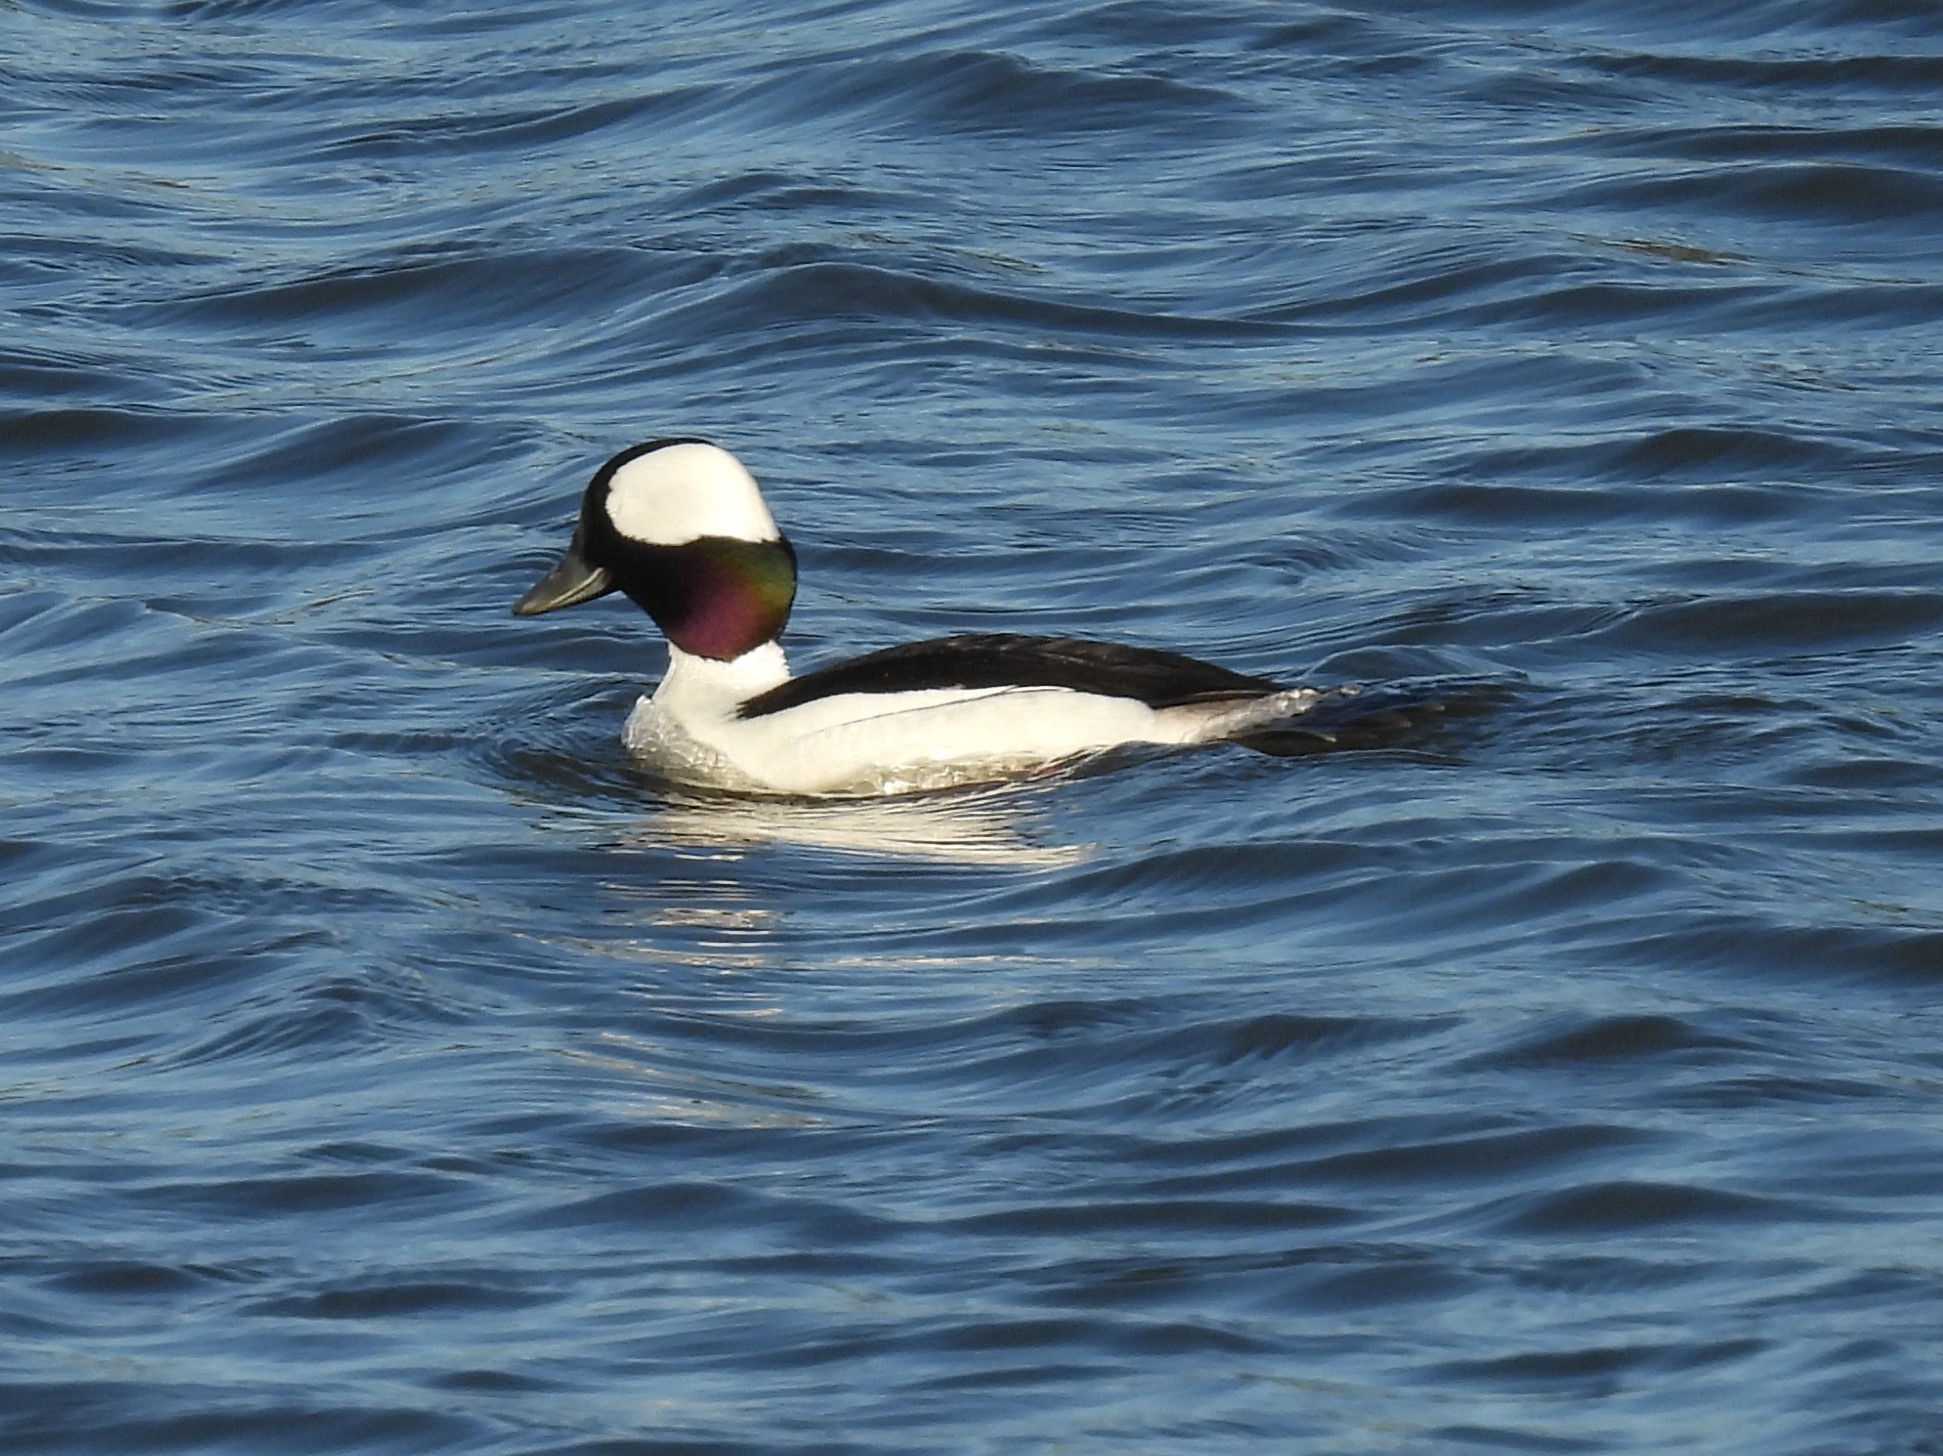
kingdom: Animalia
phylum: Chordata
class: Aves
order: Anseriformes
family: Anatidae
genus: Bucephala
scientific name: Bucephala albeola
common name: Bufflehead
